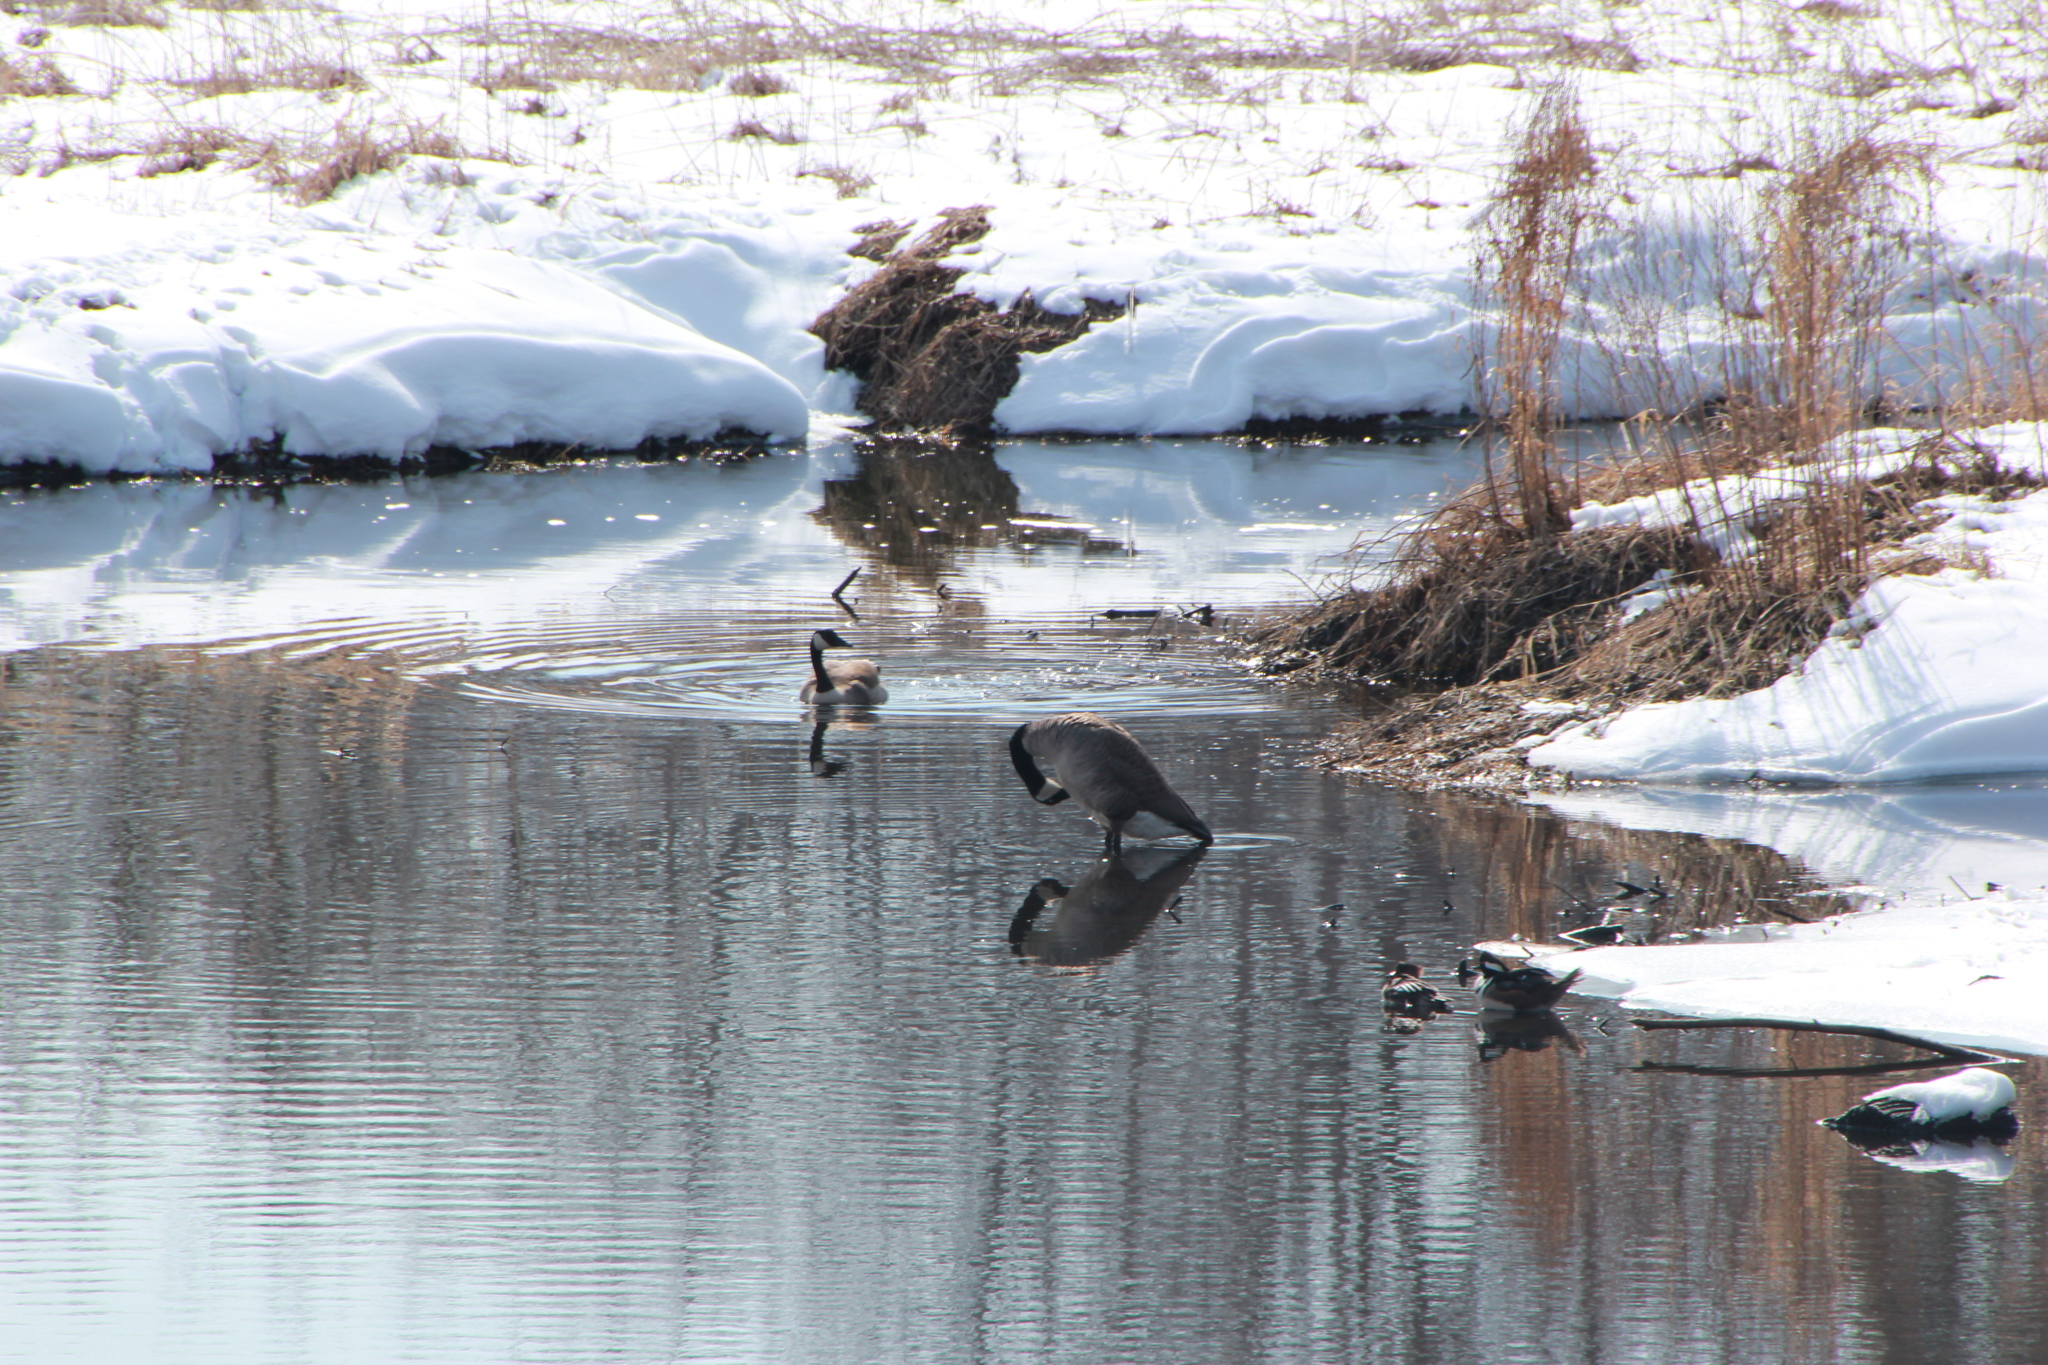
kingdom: Animalia
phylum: Chordata
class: Aves
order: Anseriformes
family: Anatidae
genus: Branta
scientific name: Branta canadensis
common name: Canada goose
